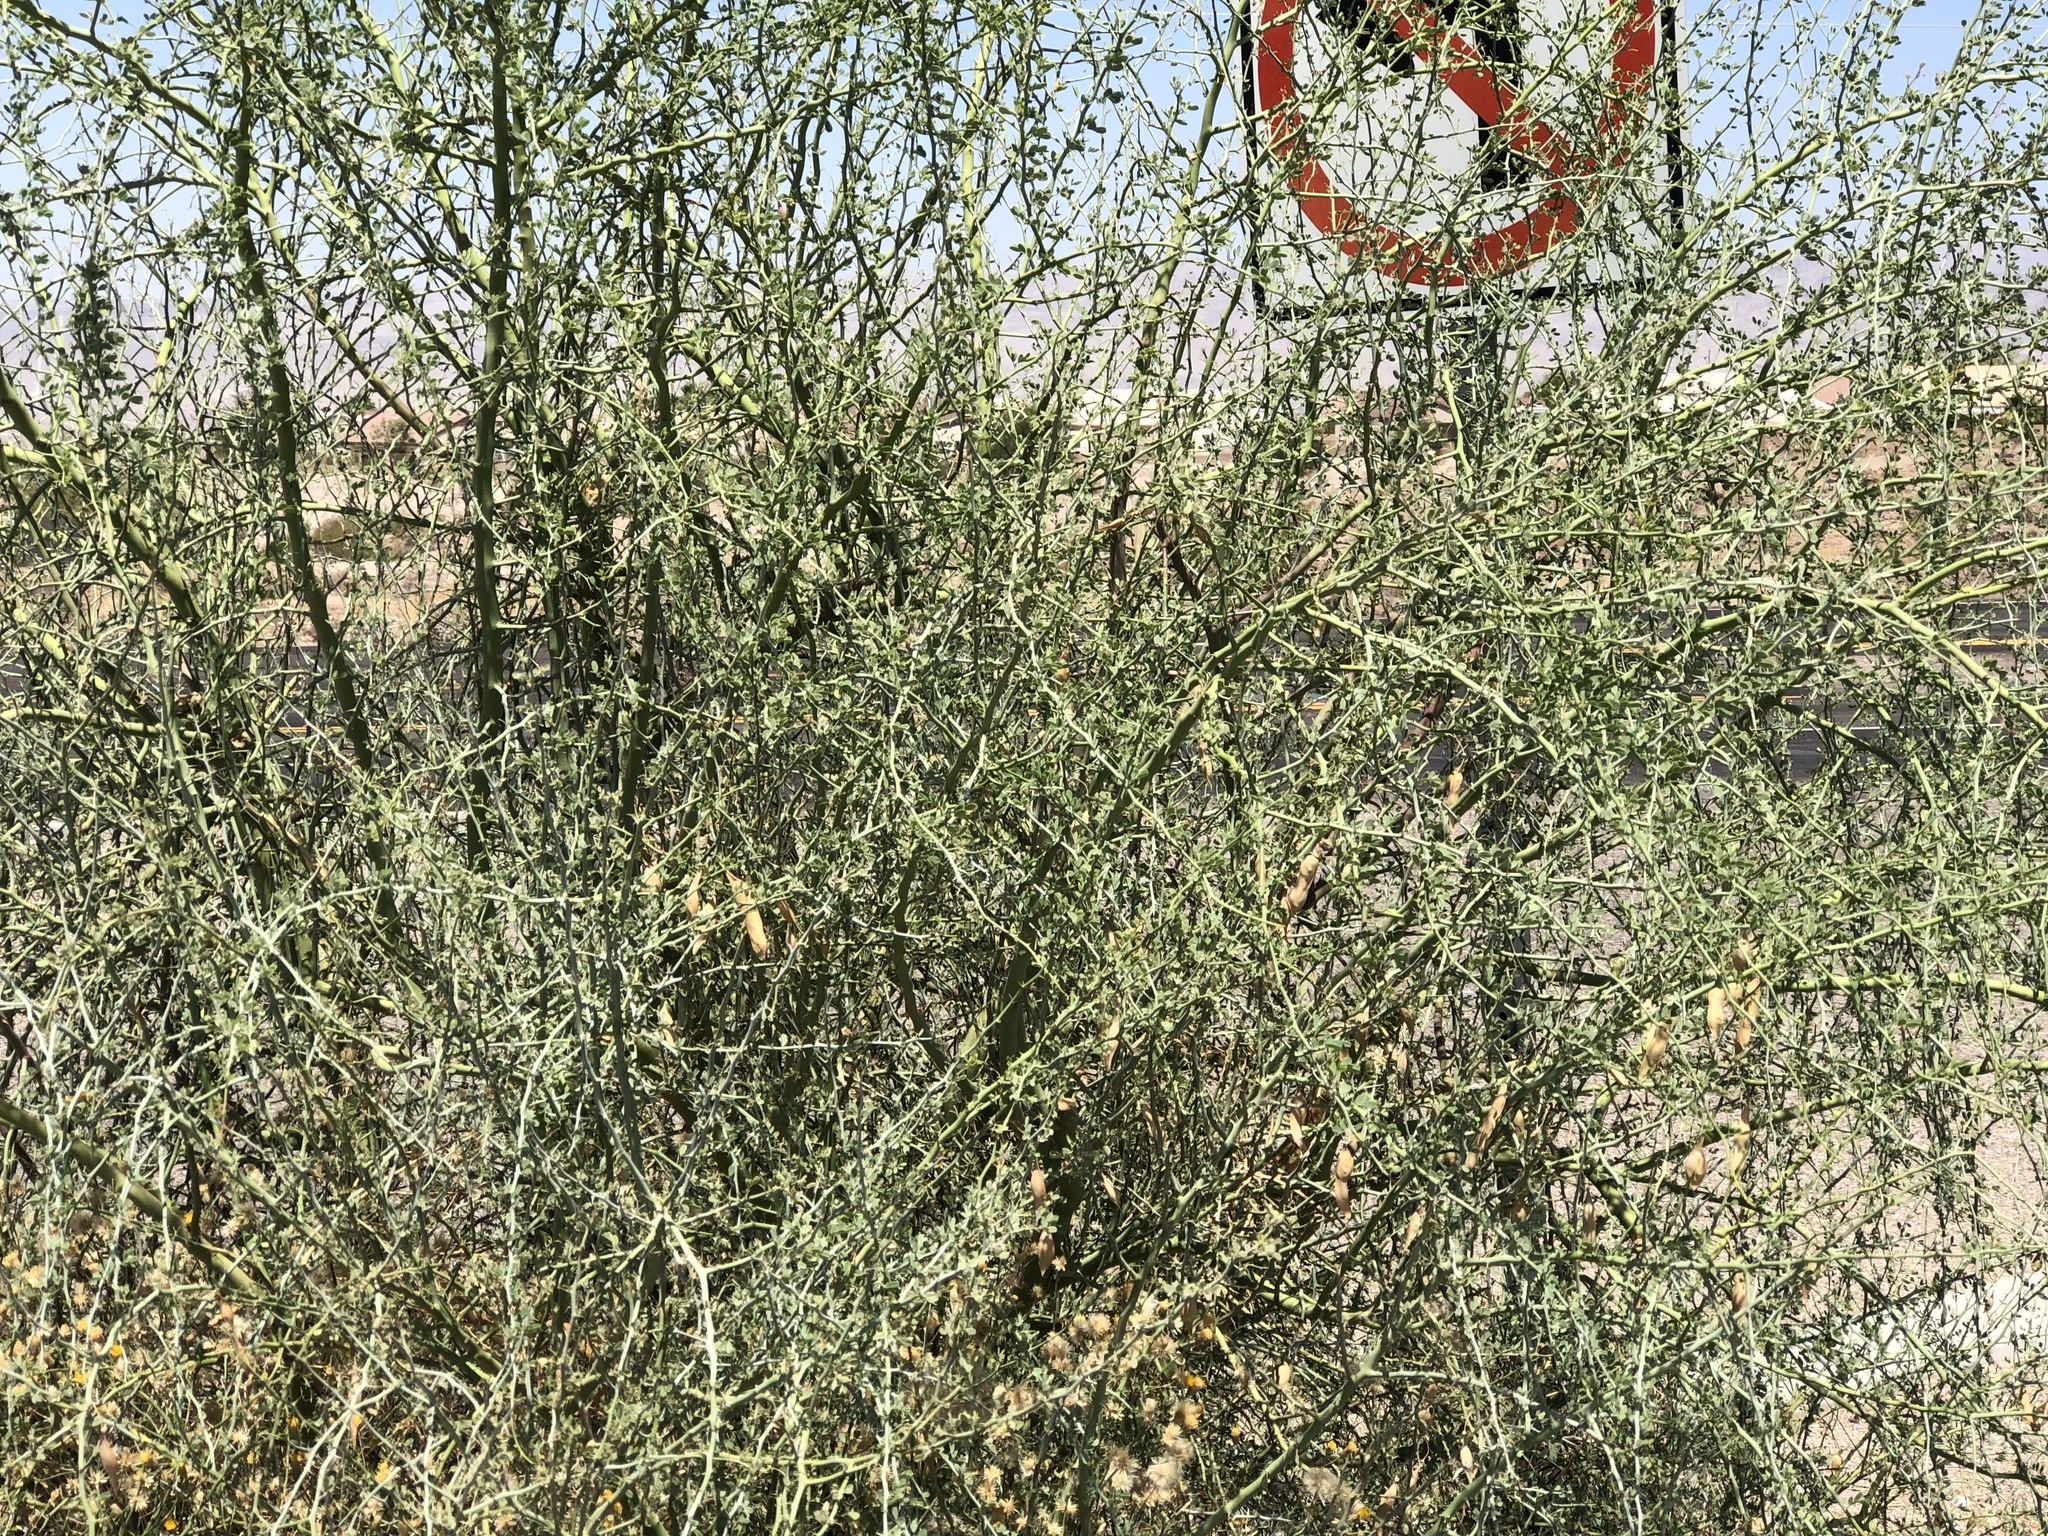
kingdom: Plantae
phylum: Tracheophyta
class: Magnoliopsida
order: Fabales
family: Fabaceae
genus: Parkinsonia
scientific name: Parkinsonia florida
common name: Blue paloverde
